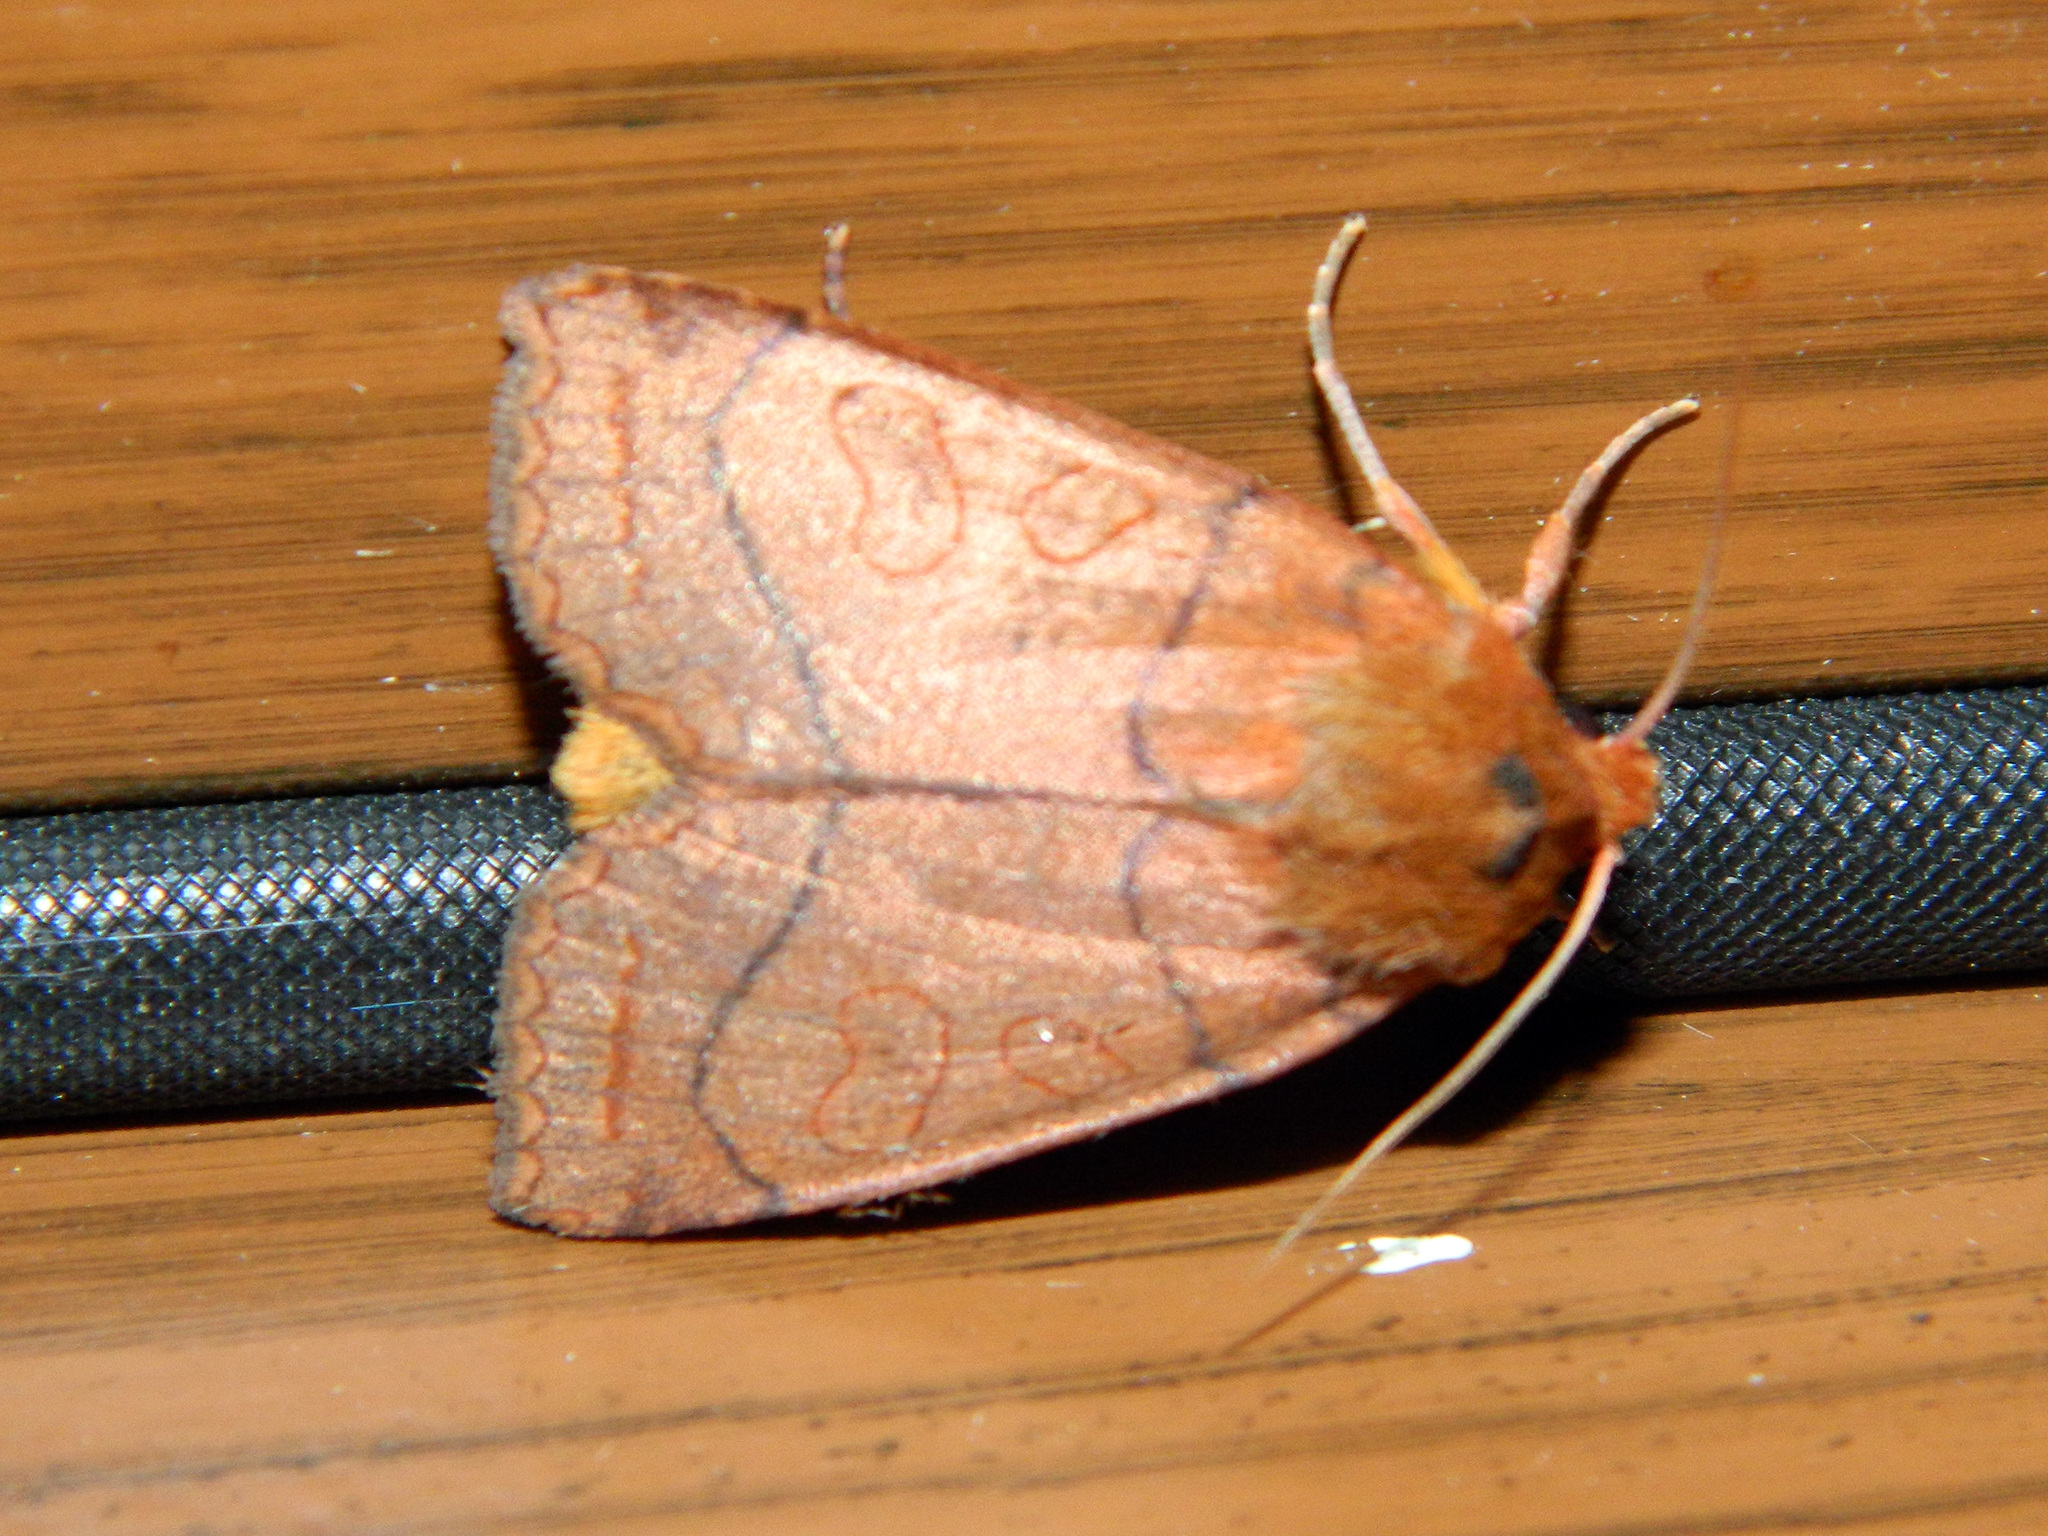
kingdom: Animalia
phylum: Arthropoda
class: Insecta
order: Lepidoptera
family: Noctuidae
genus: Metaxaglaea
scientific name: Metaxaglaea inulta
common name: Unsated sallow
